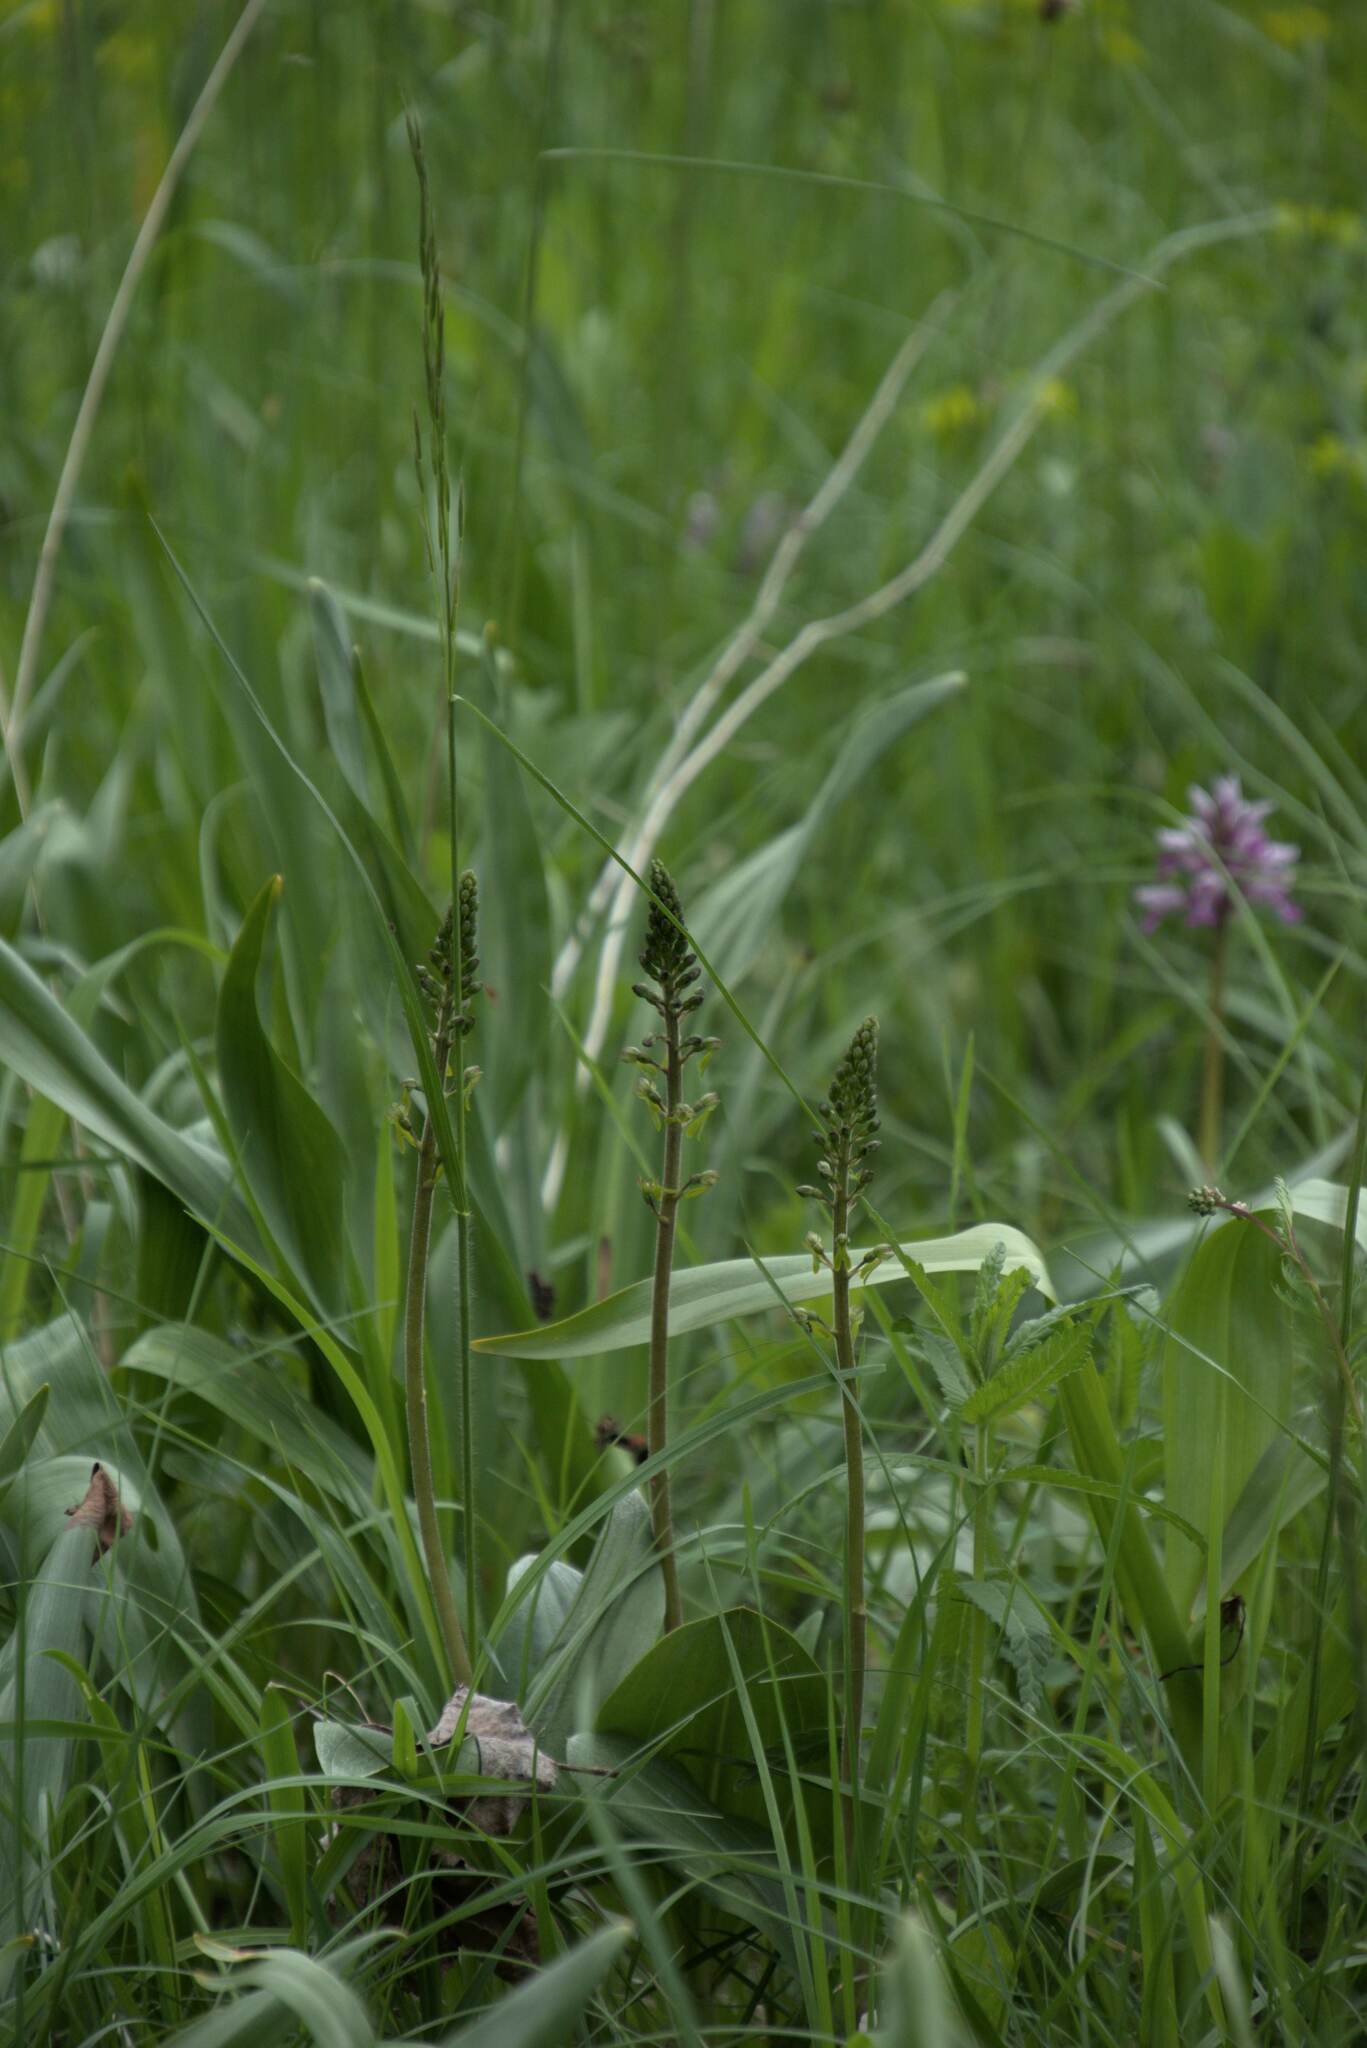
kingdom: Plantae
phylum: Tracheophyta
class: Liliopsida
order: Asparagales
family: Orchidaceae
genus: Neottia
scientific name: Neottia ovata
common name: Common twayblade
